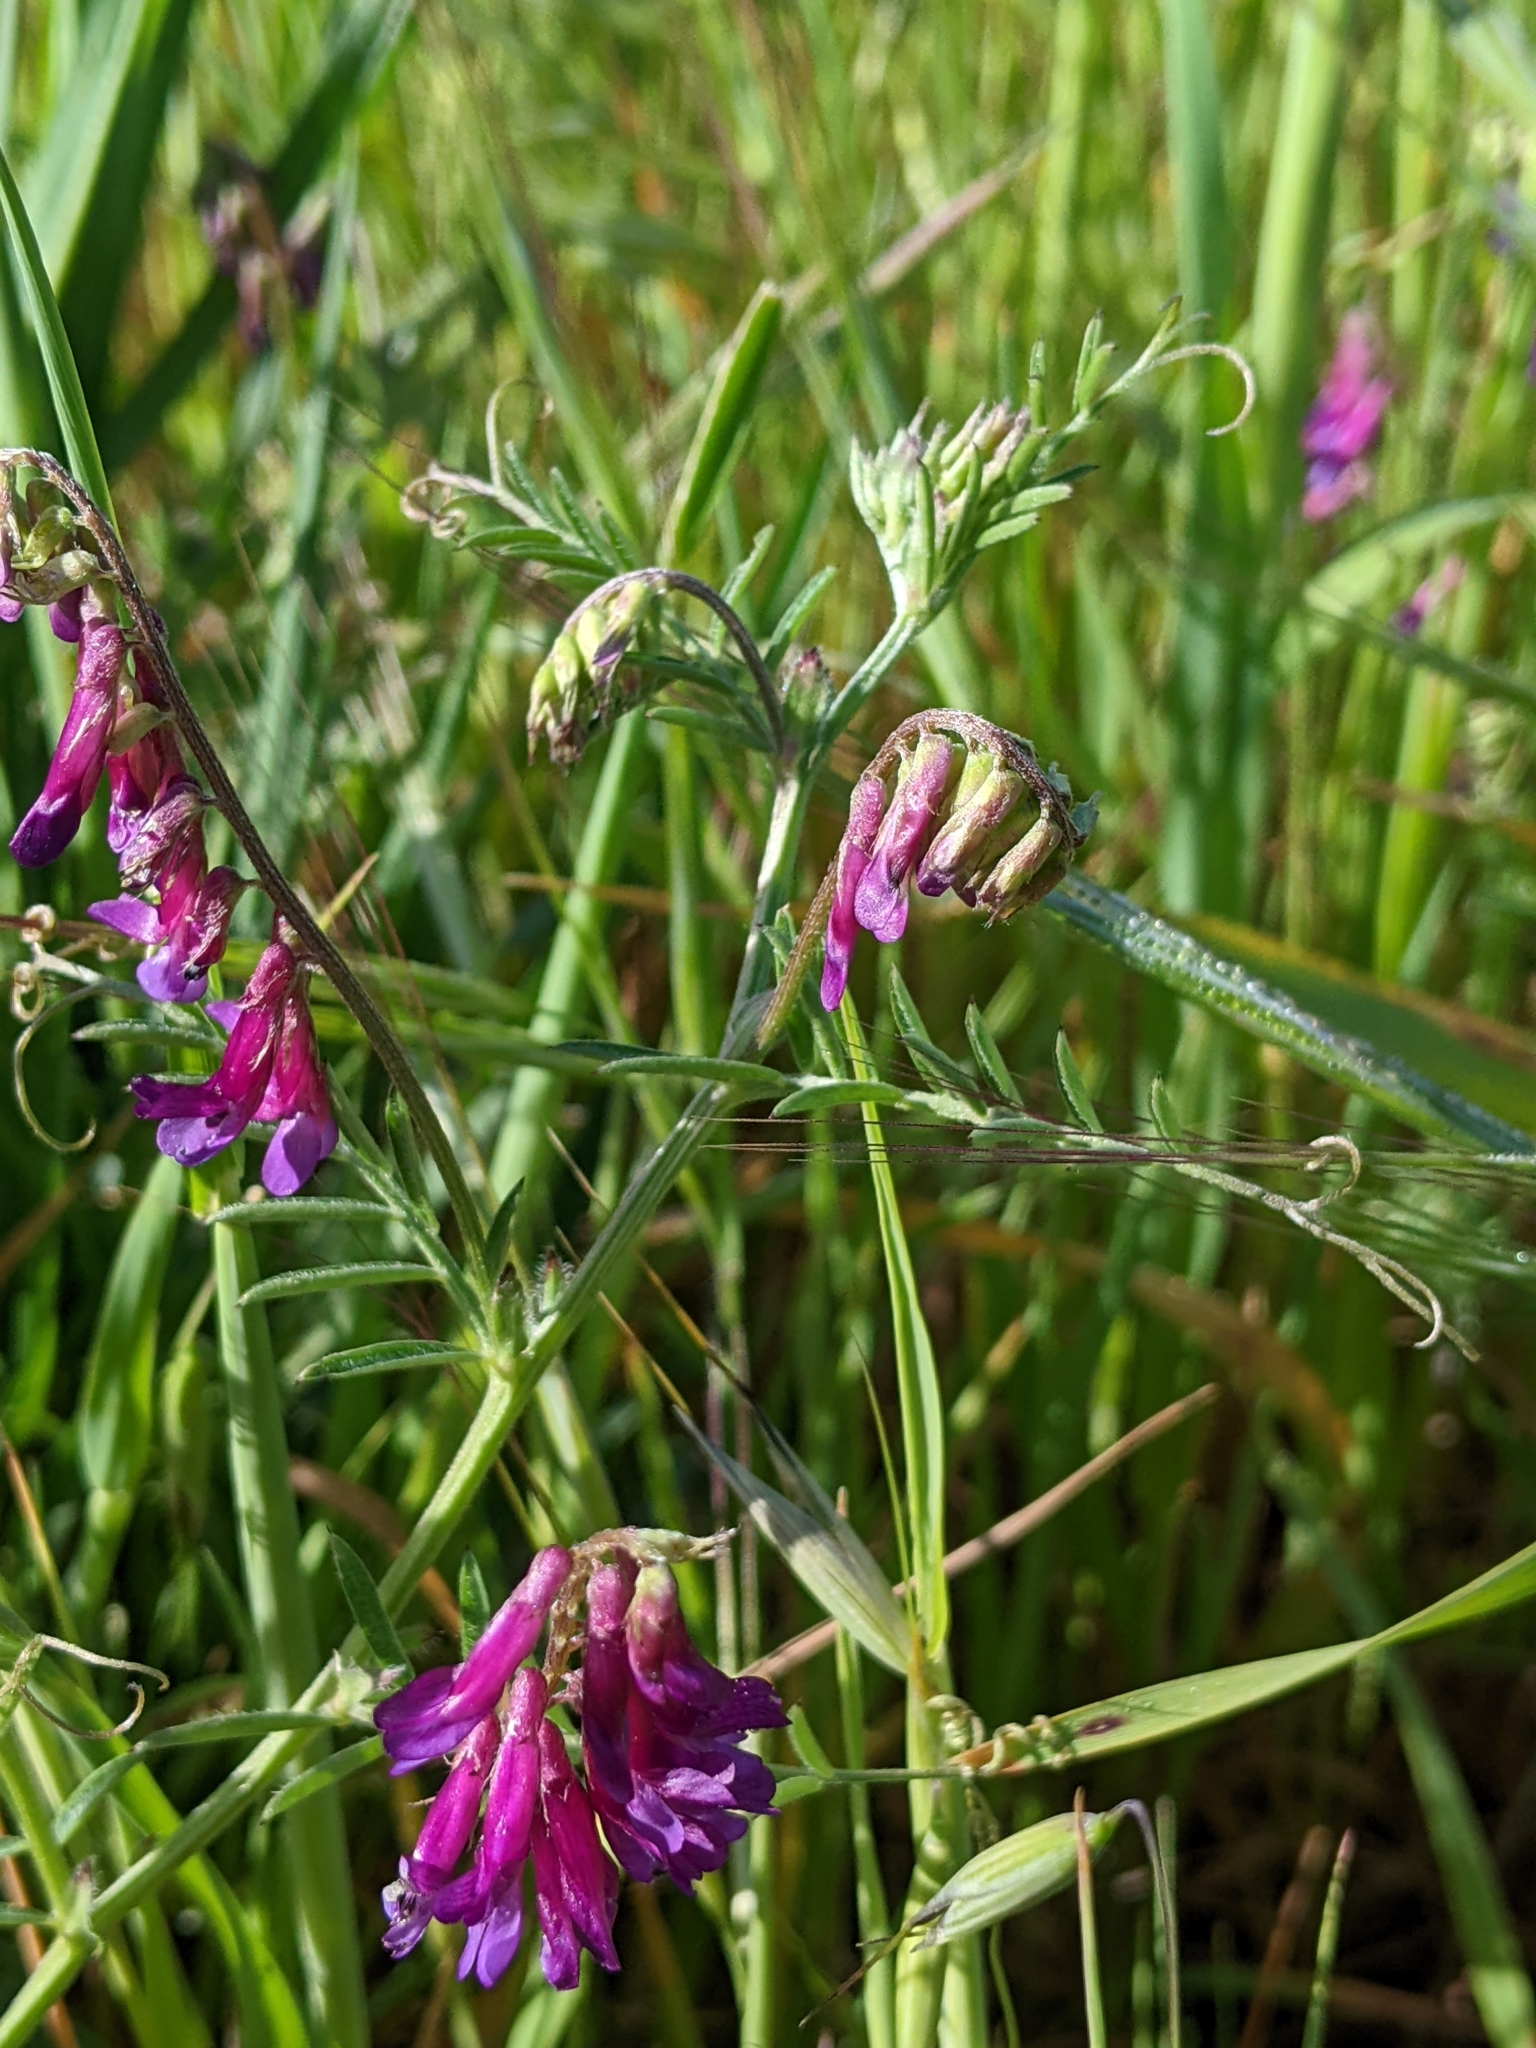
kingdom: Plantae
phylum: Tracheophyta
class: Magnoliopsida
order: Fabales
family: Fabaceae
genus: Vicia
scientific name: Vicia villosa
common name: Fodder vetch
